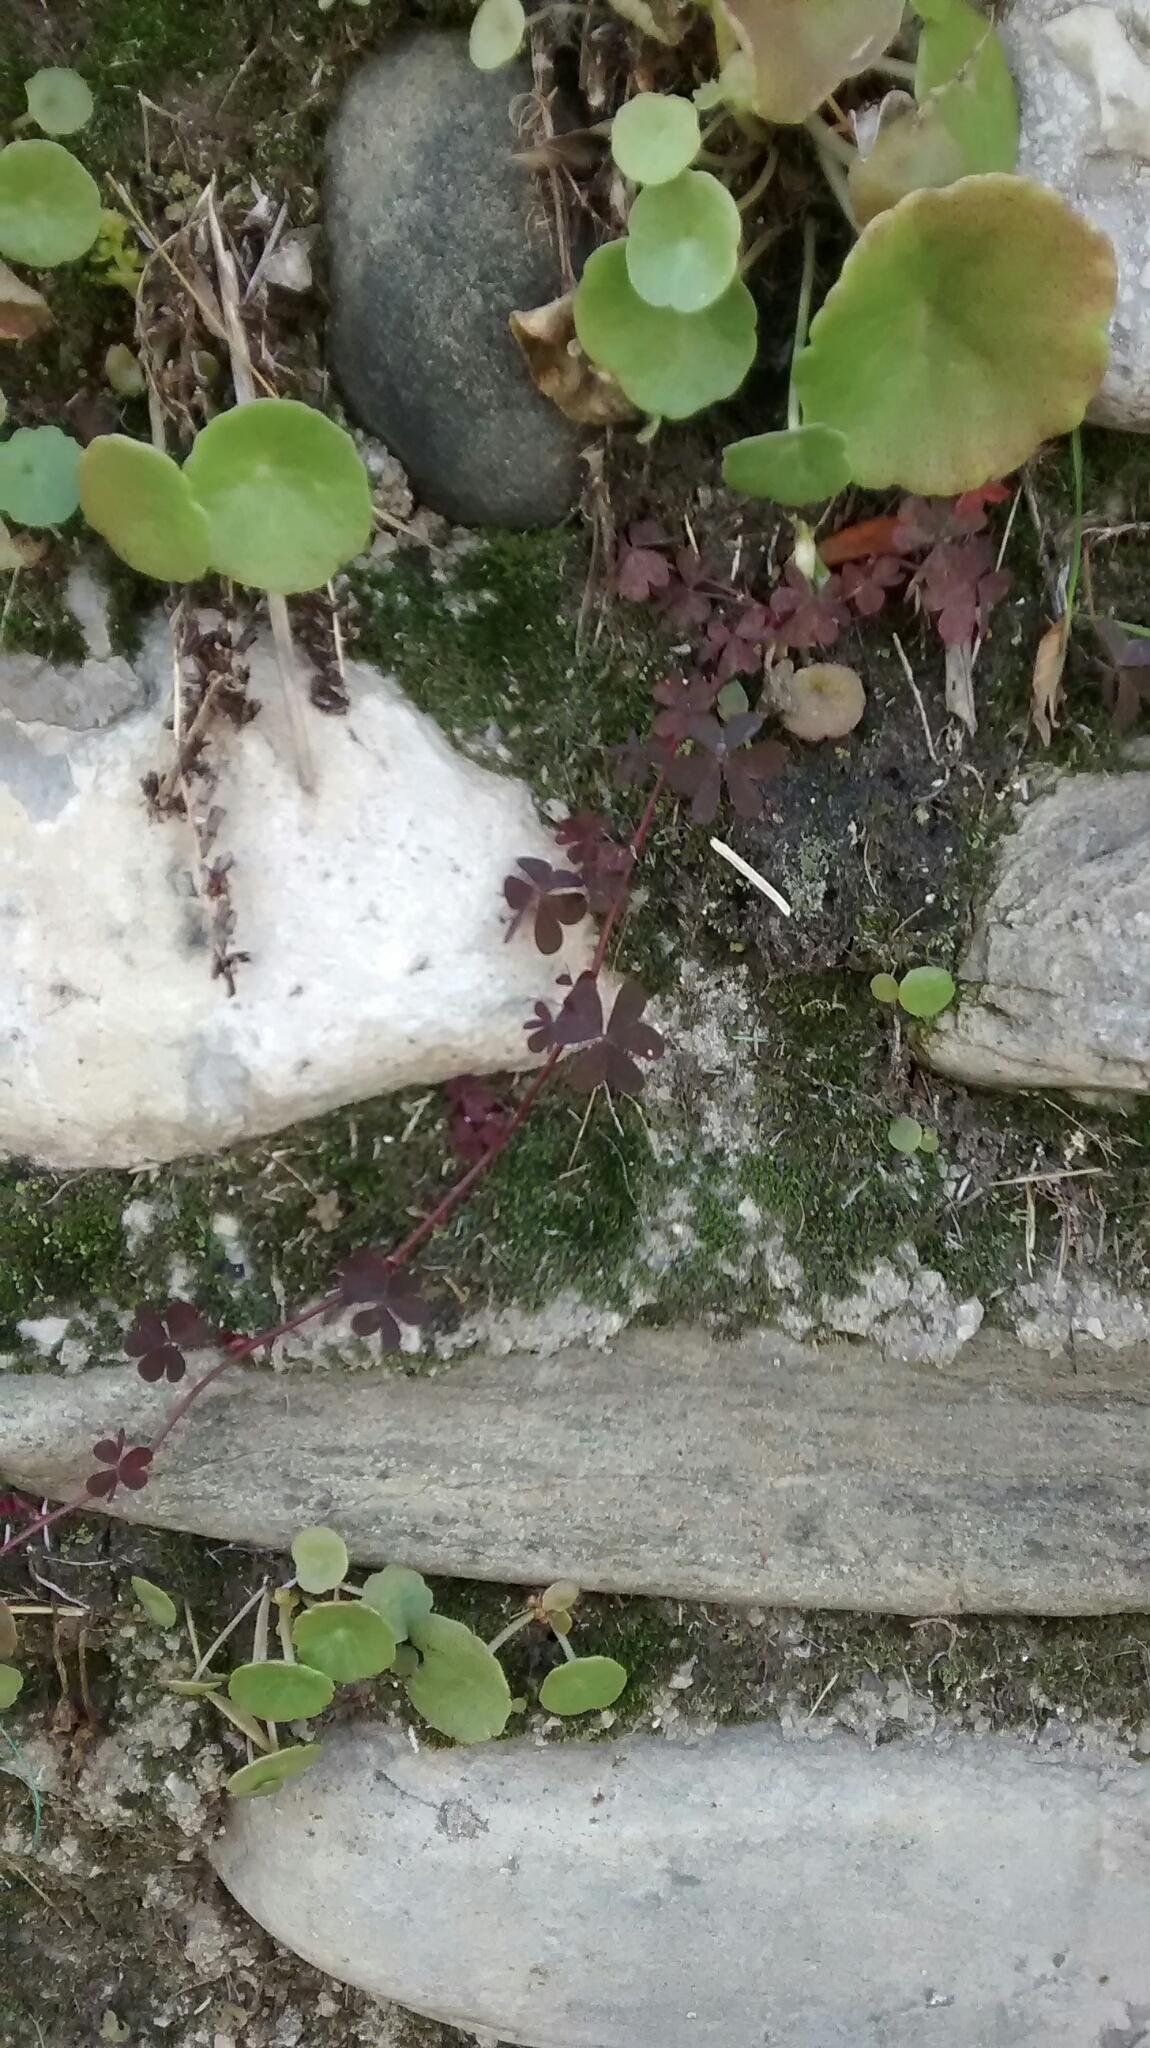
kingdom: Plantae
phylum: Tracheophyta
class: Magnoliopsida
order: Oxalidales
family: Oxalidaceae
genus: Oxalis
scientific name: Oxalis corniculata
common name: Procumbent yellow-sorrel
